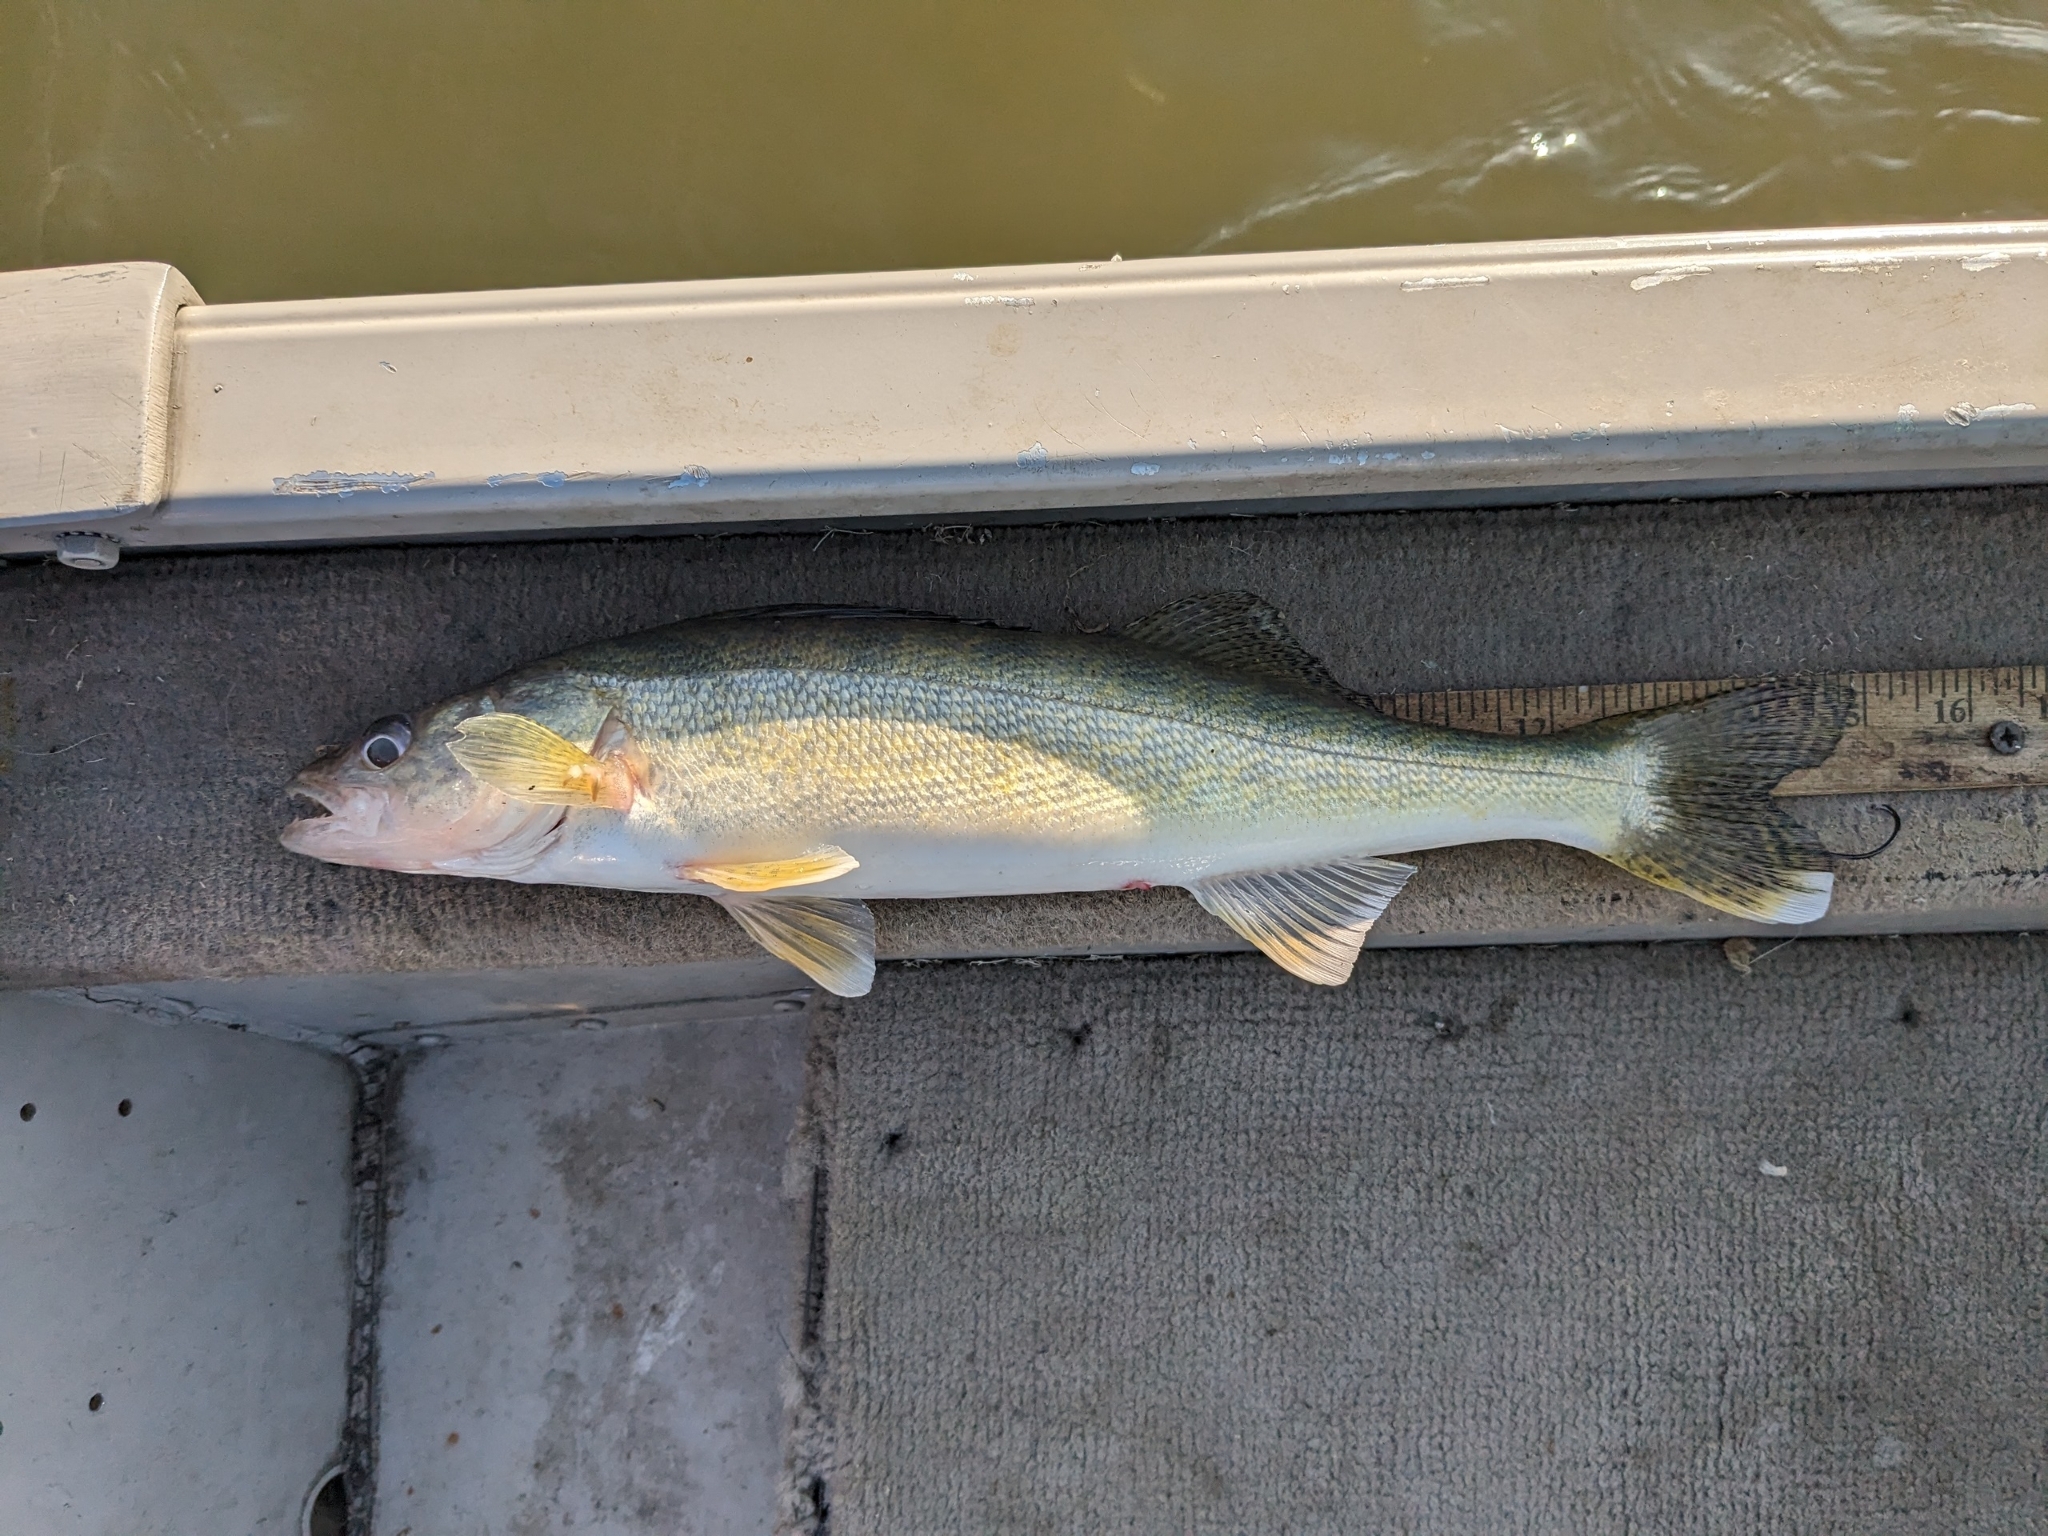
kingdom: Animalia
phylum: Chordata
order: Perciformes
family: Percidae
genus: Sander
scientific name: Sander vitreus
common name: Walleye
